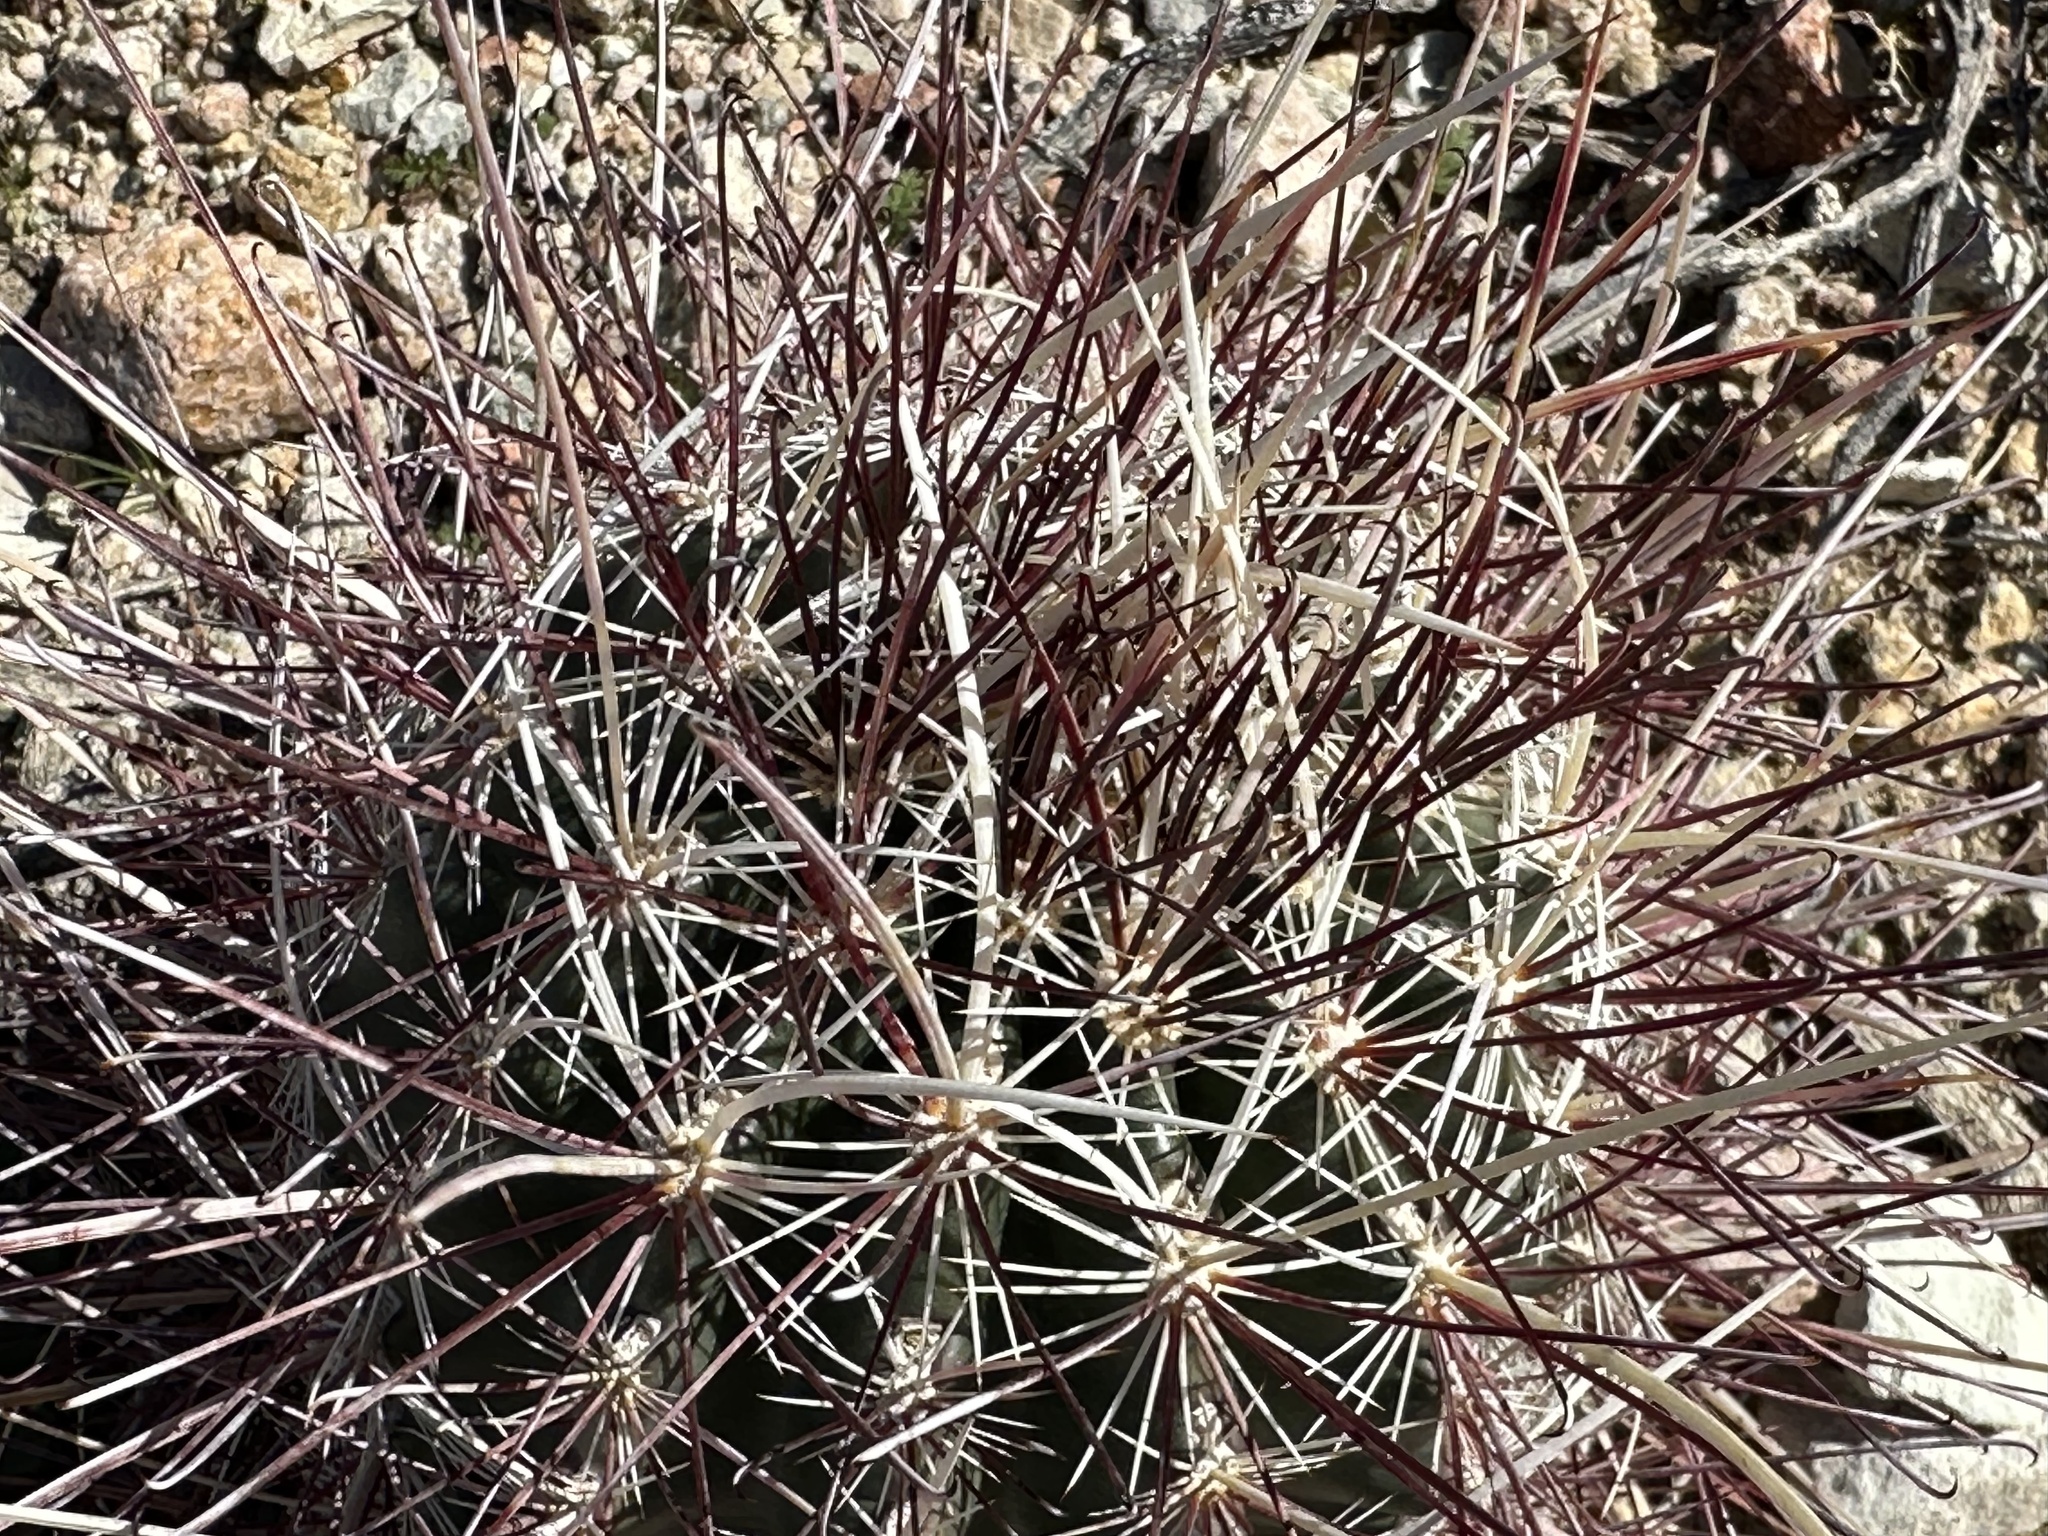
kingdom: Plantae
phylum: Tracheophyta
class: Magnoliopsida
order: Caryophyllales
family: Cactaceae
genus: Sclerocactus
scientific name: Sclerocactus polyancistrus
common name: Mohave fishhook cactus
